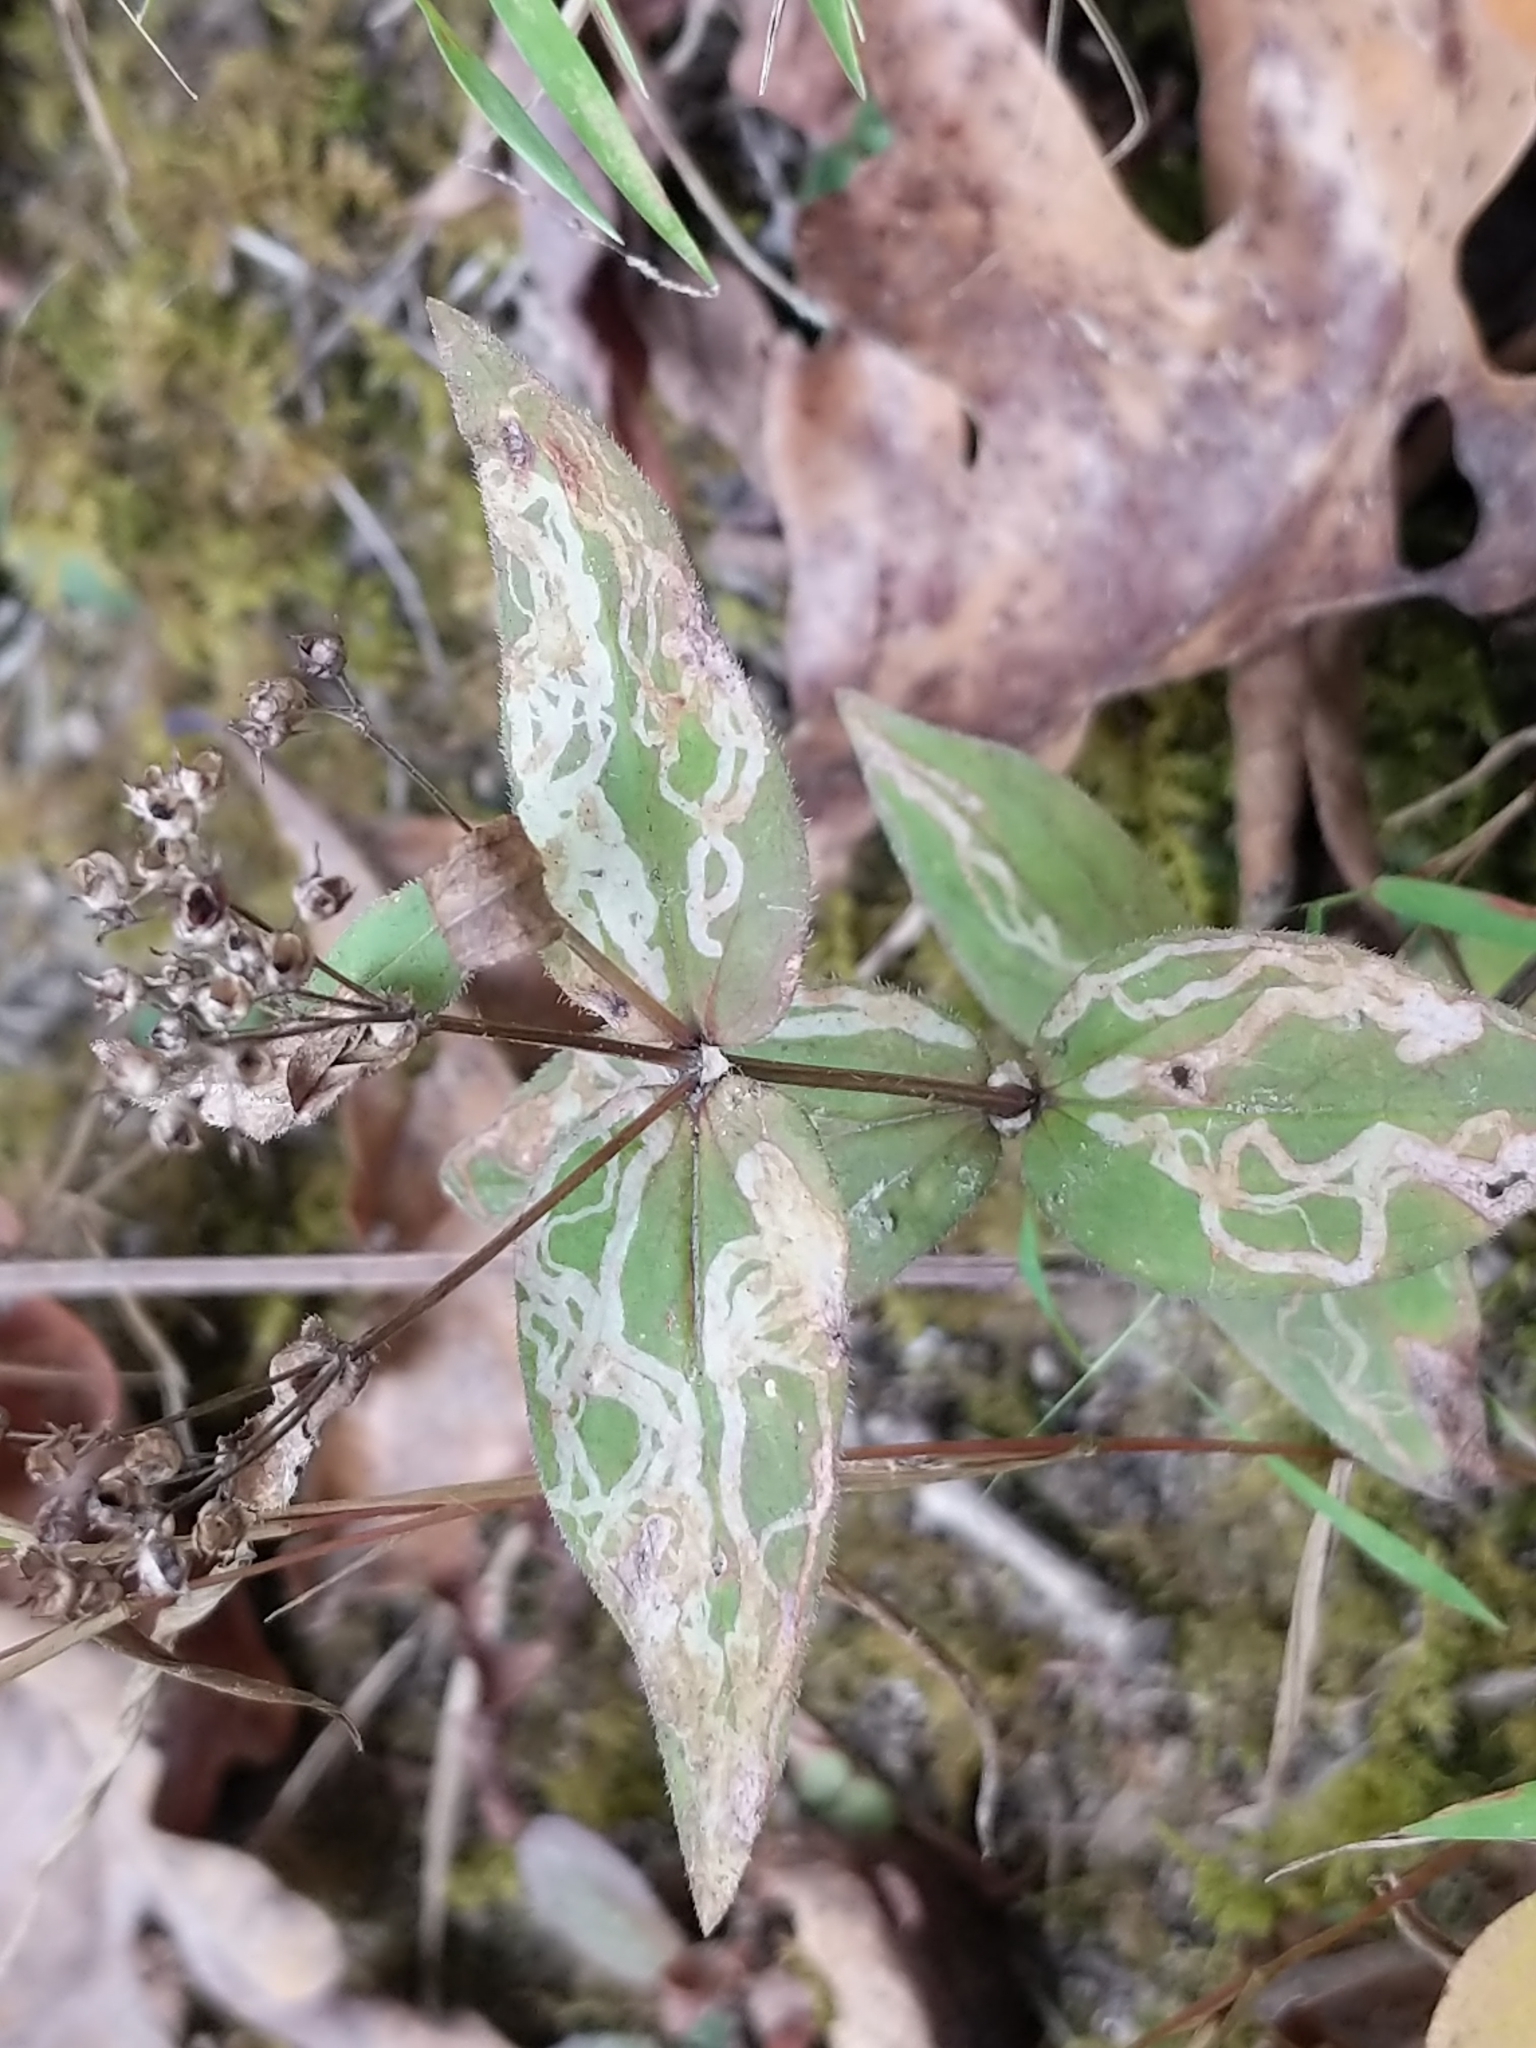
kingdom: Plantae
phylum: Tracheophyta
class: Magnoliopsida
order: Gentianales
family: Rubiaceae
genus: Houstonia
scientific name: Houstonia purpurea
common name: Summer bluet
